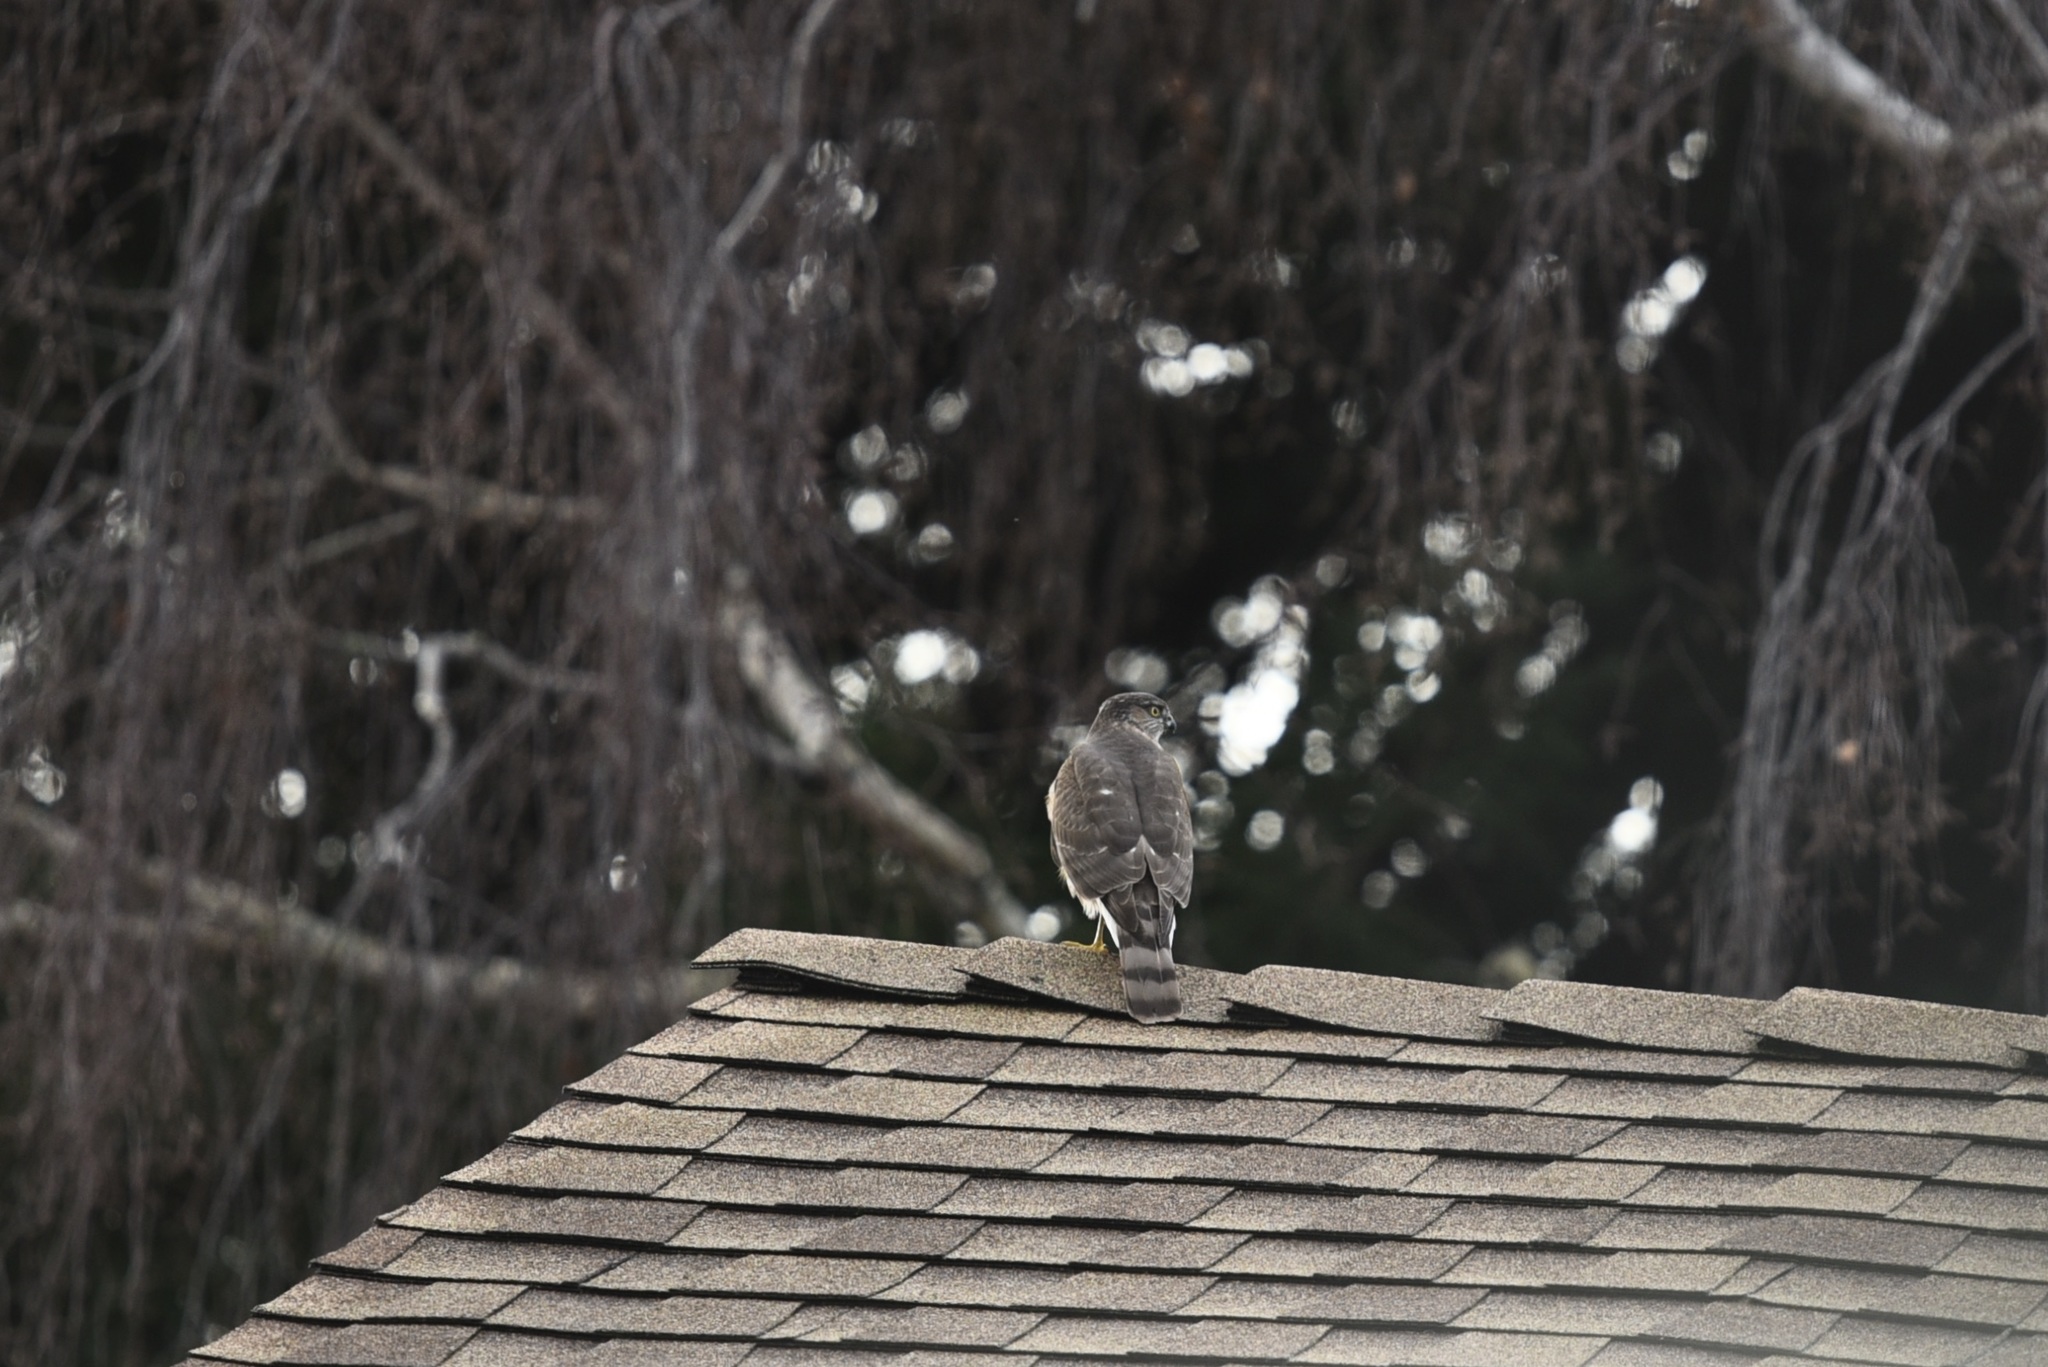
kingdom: Animalia
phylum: Chordata
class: Aves
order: Accipitriformes
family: Accipitridae
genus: Accipiter
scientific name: Accipiter striatus
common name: Sharp-shinned hawk
